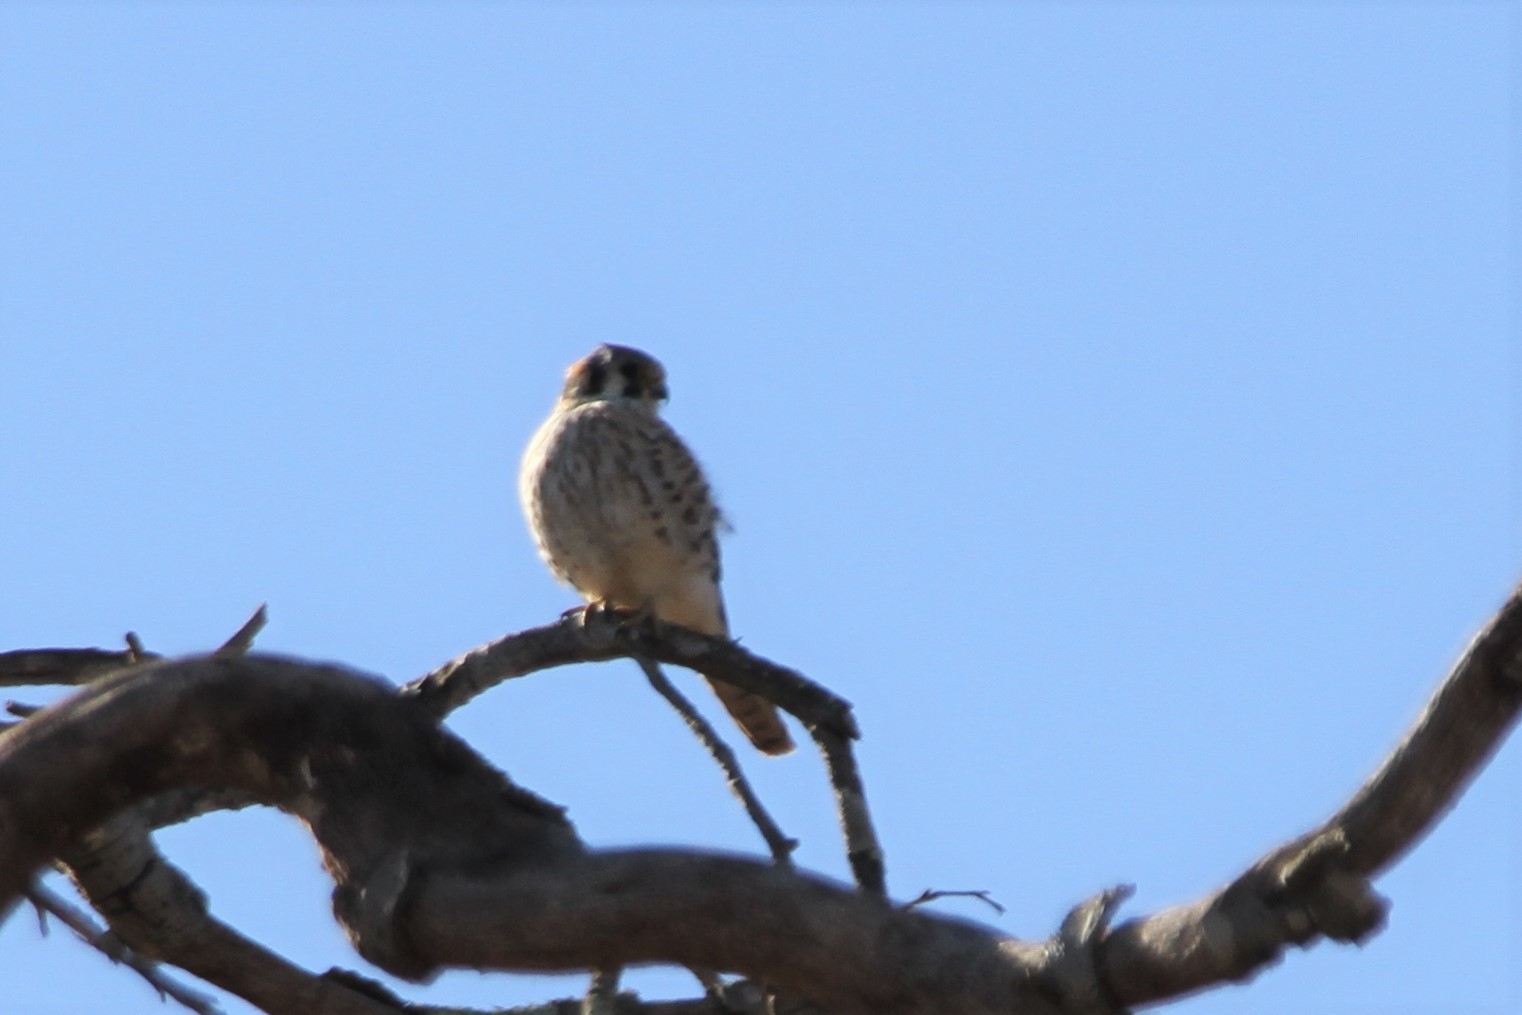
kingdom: Animalia
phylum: Chordata
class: Aves
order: Falconiformes
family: Falconidae
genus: Falco
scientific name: Falco sparverius
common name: American kestrel
